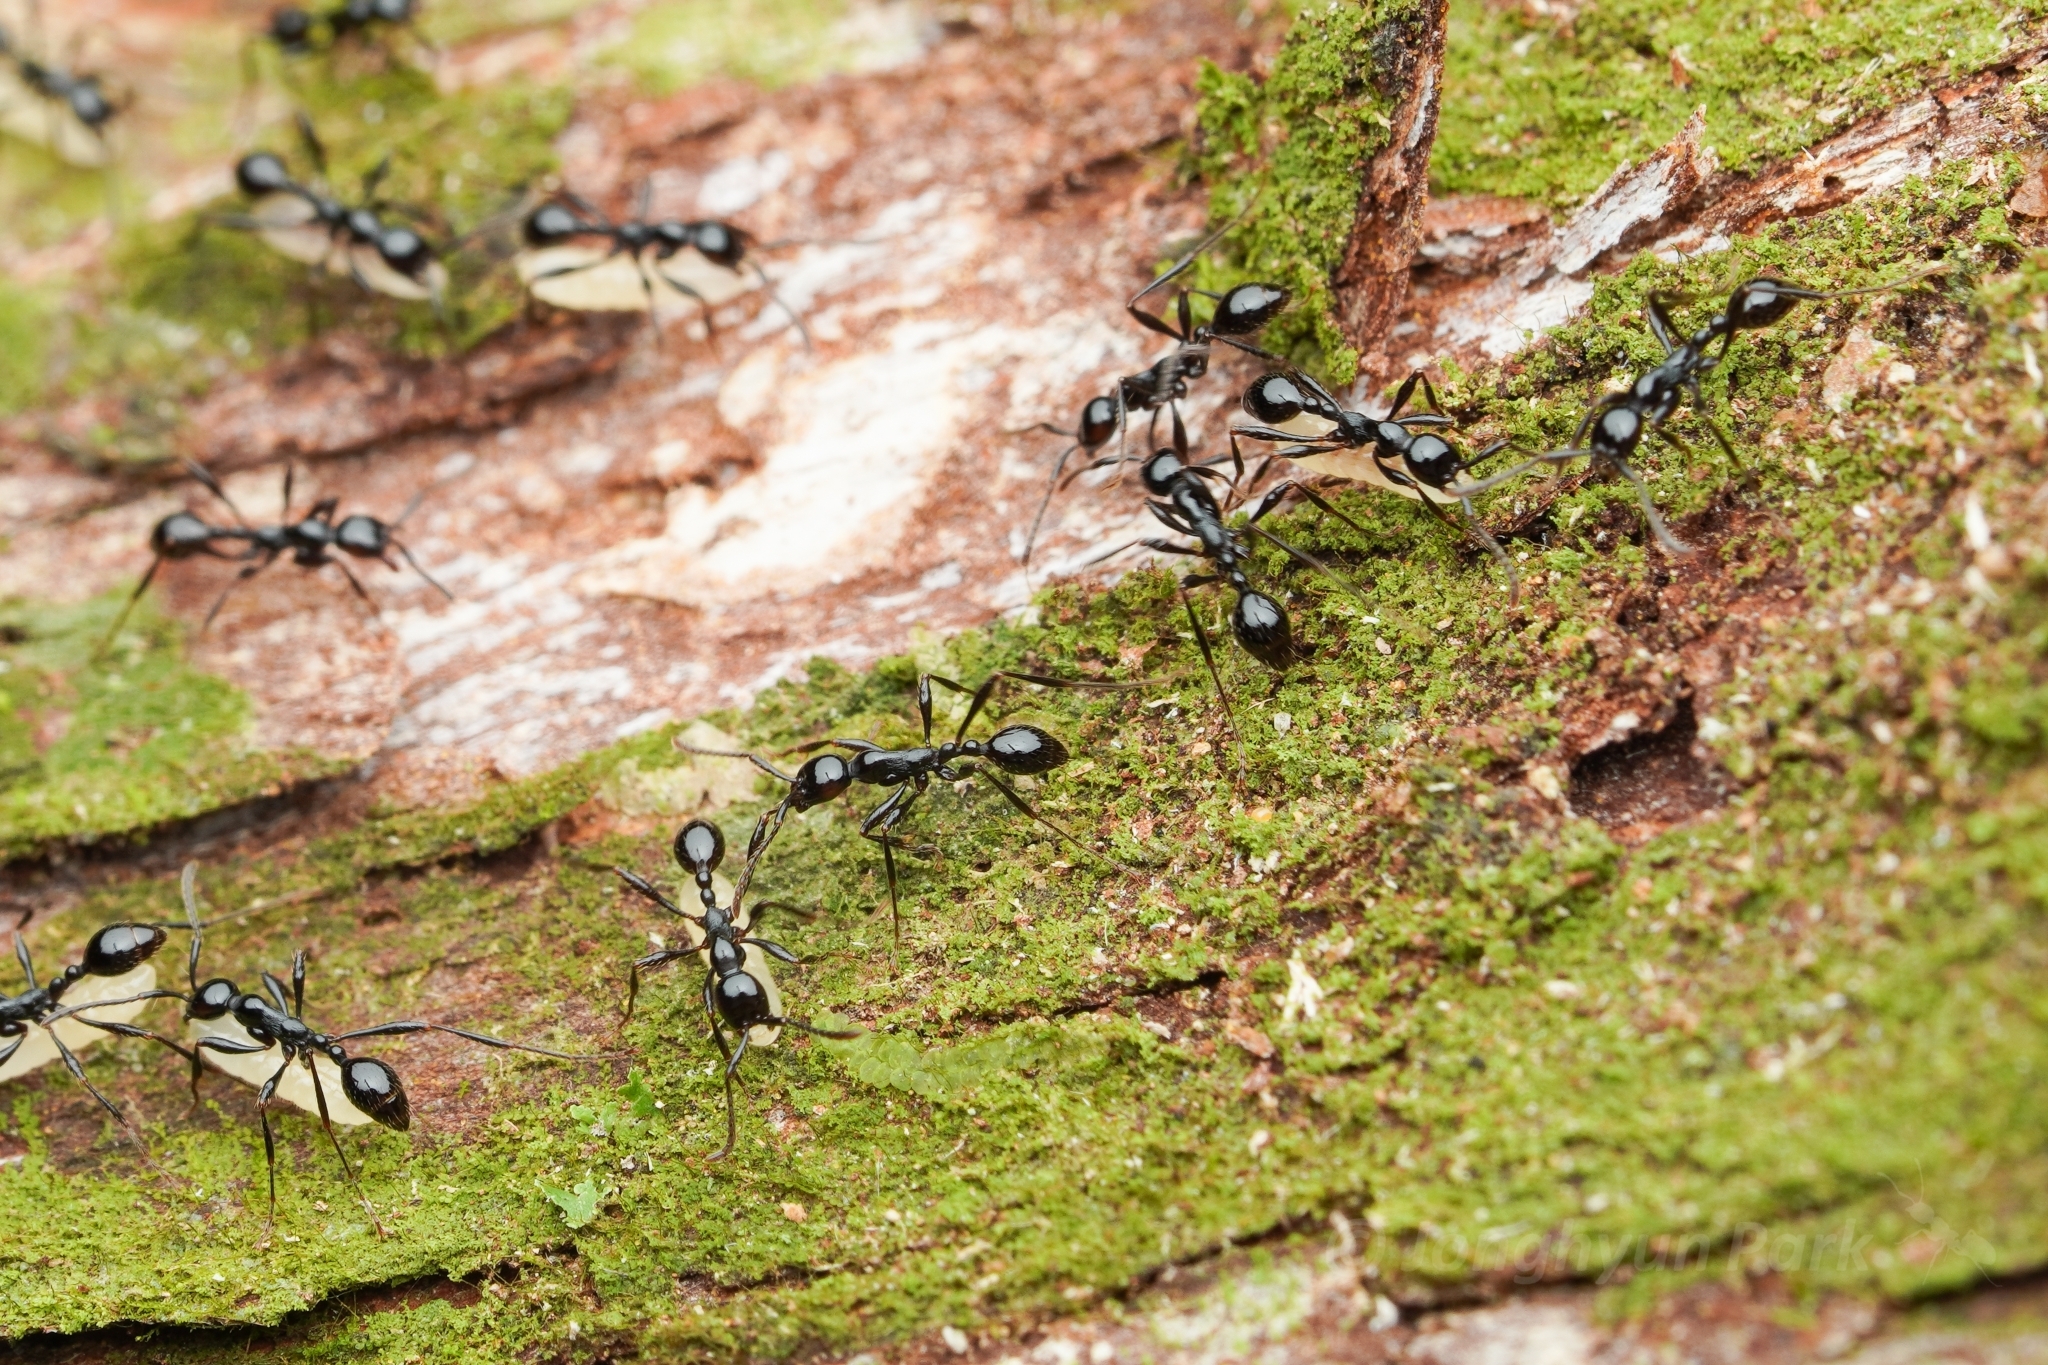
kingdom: Animalia
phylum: Arthropoda
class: Insecta
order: Hymenoptera
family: Formicidae
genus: Aenictus
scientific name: Aenictus laeviceps
